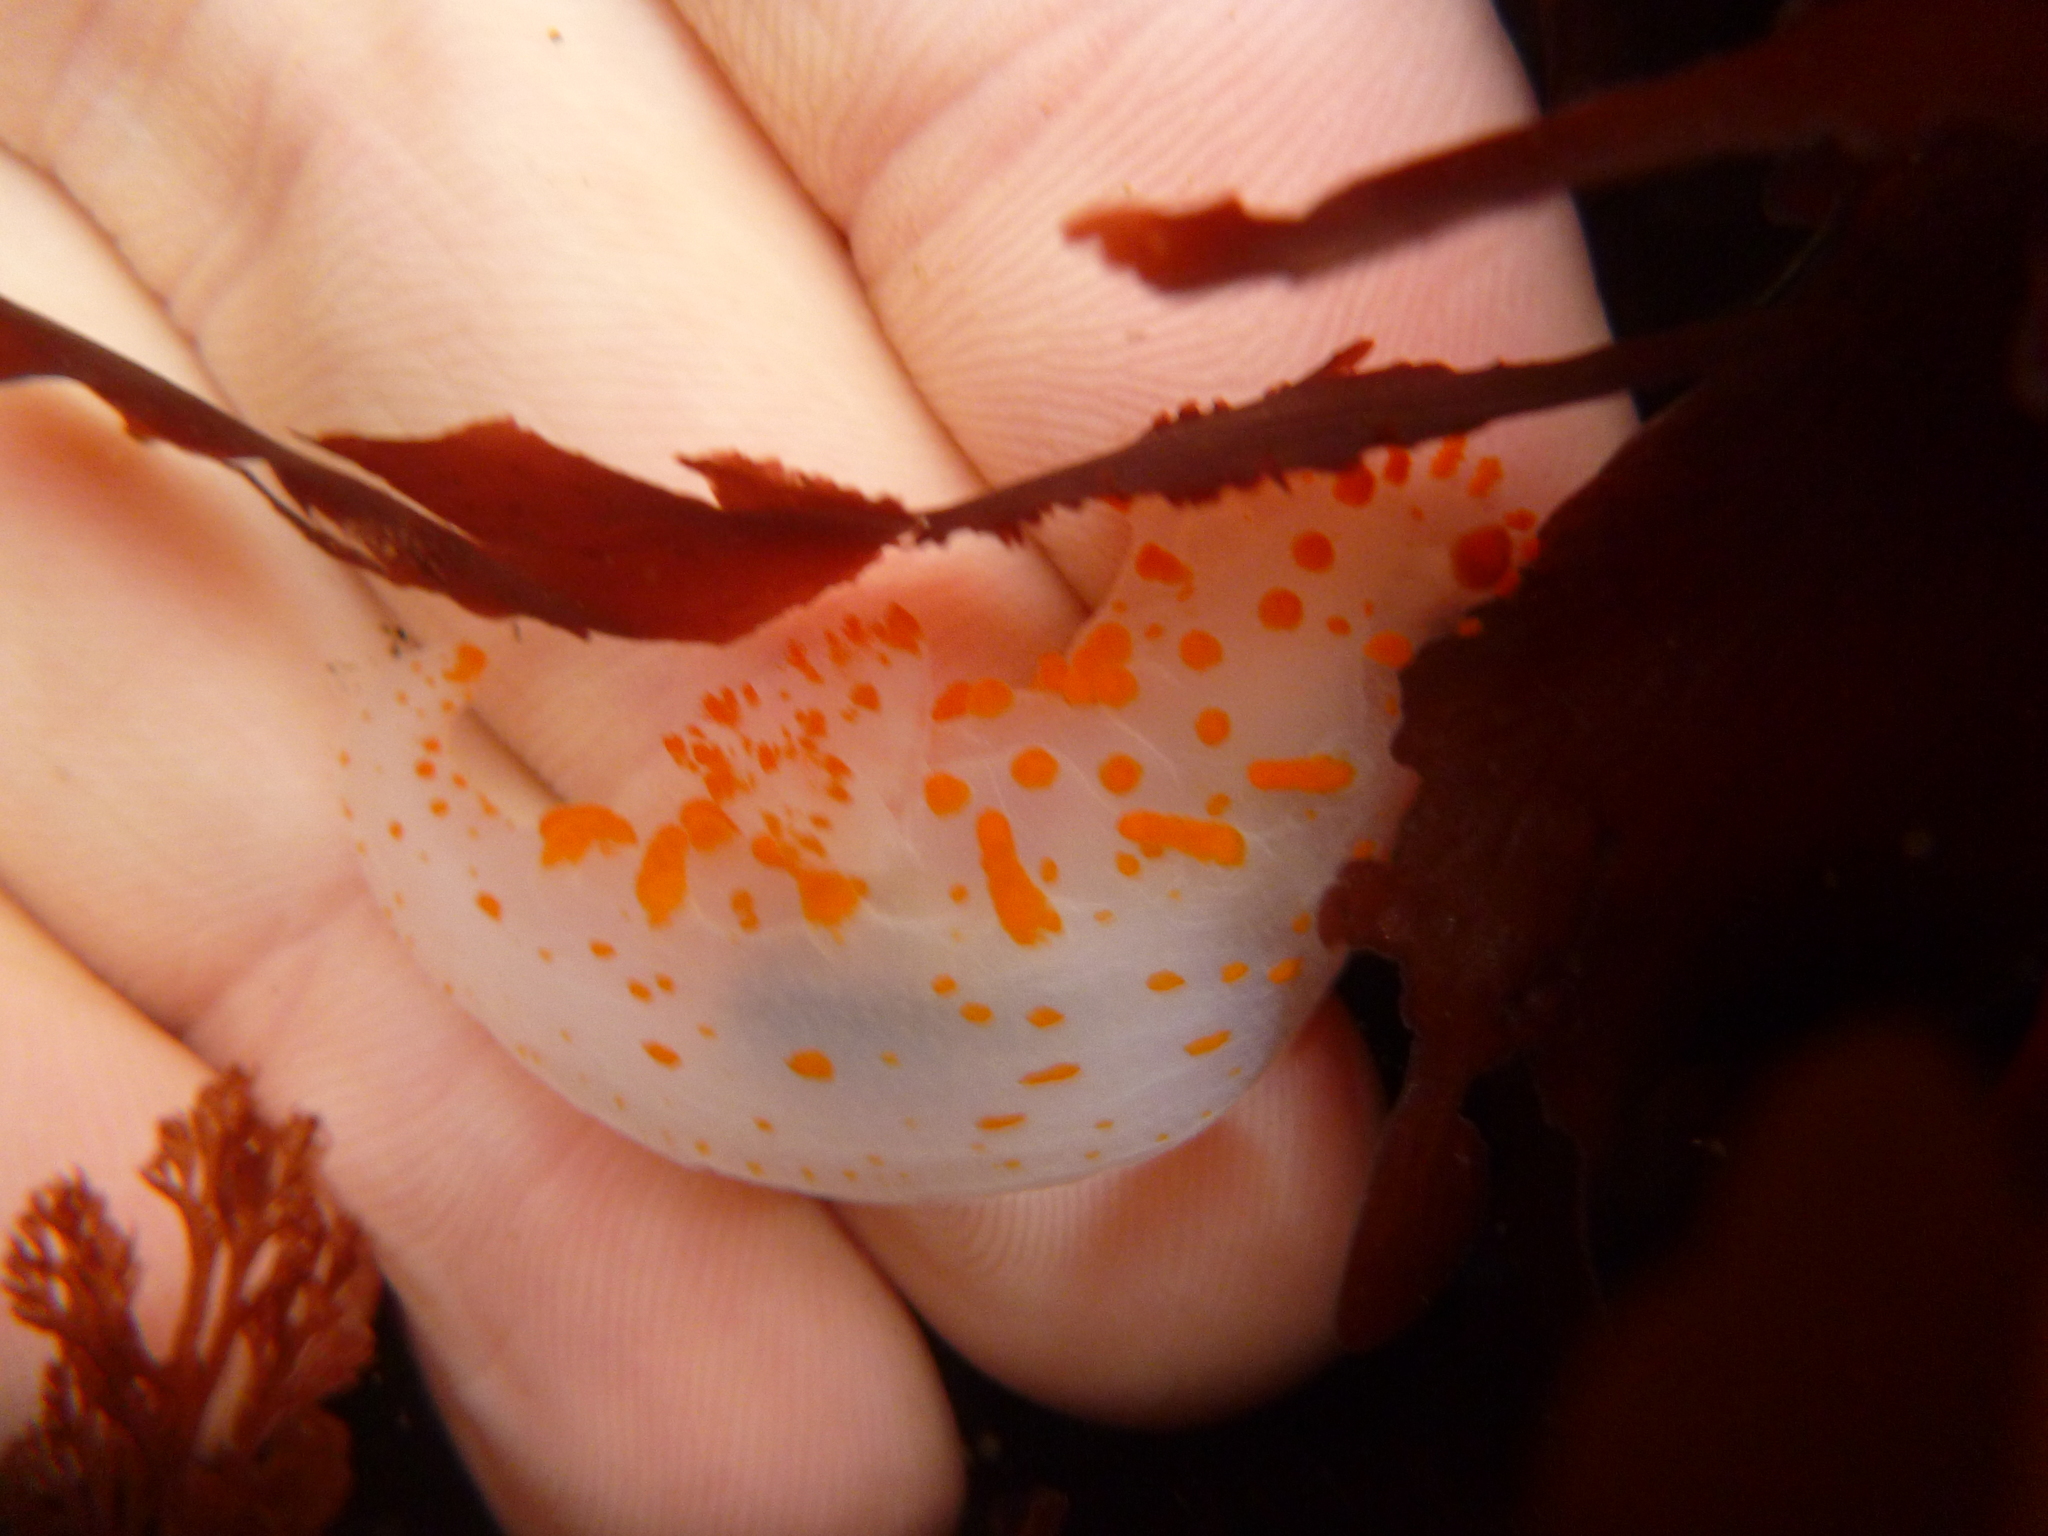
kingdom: Animalia
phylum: Mollusca
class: Gastropoda
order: Nudibranchia
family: Polyceridae
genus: Triopha
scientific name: Triopha catalinae
